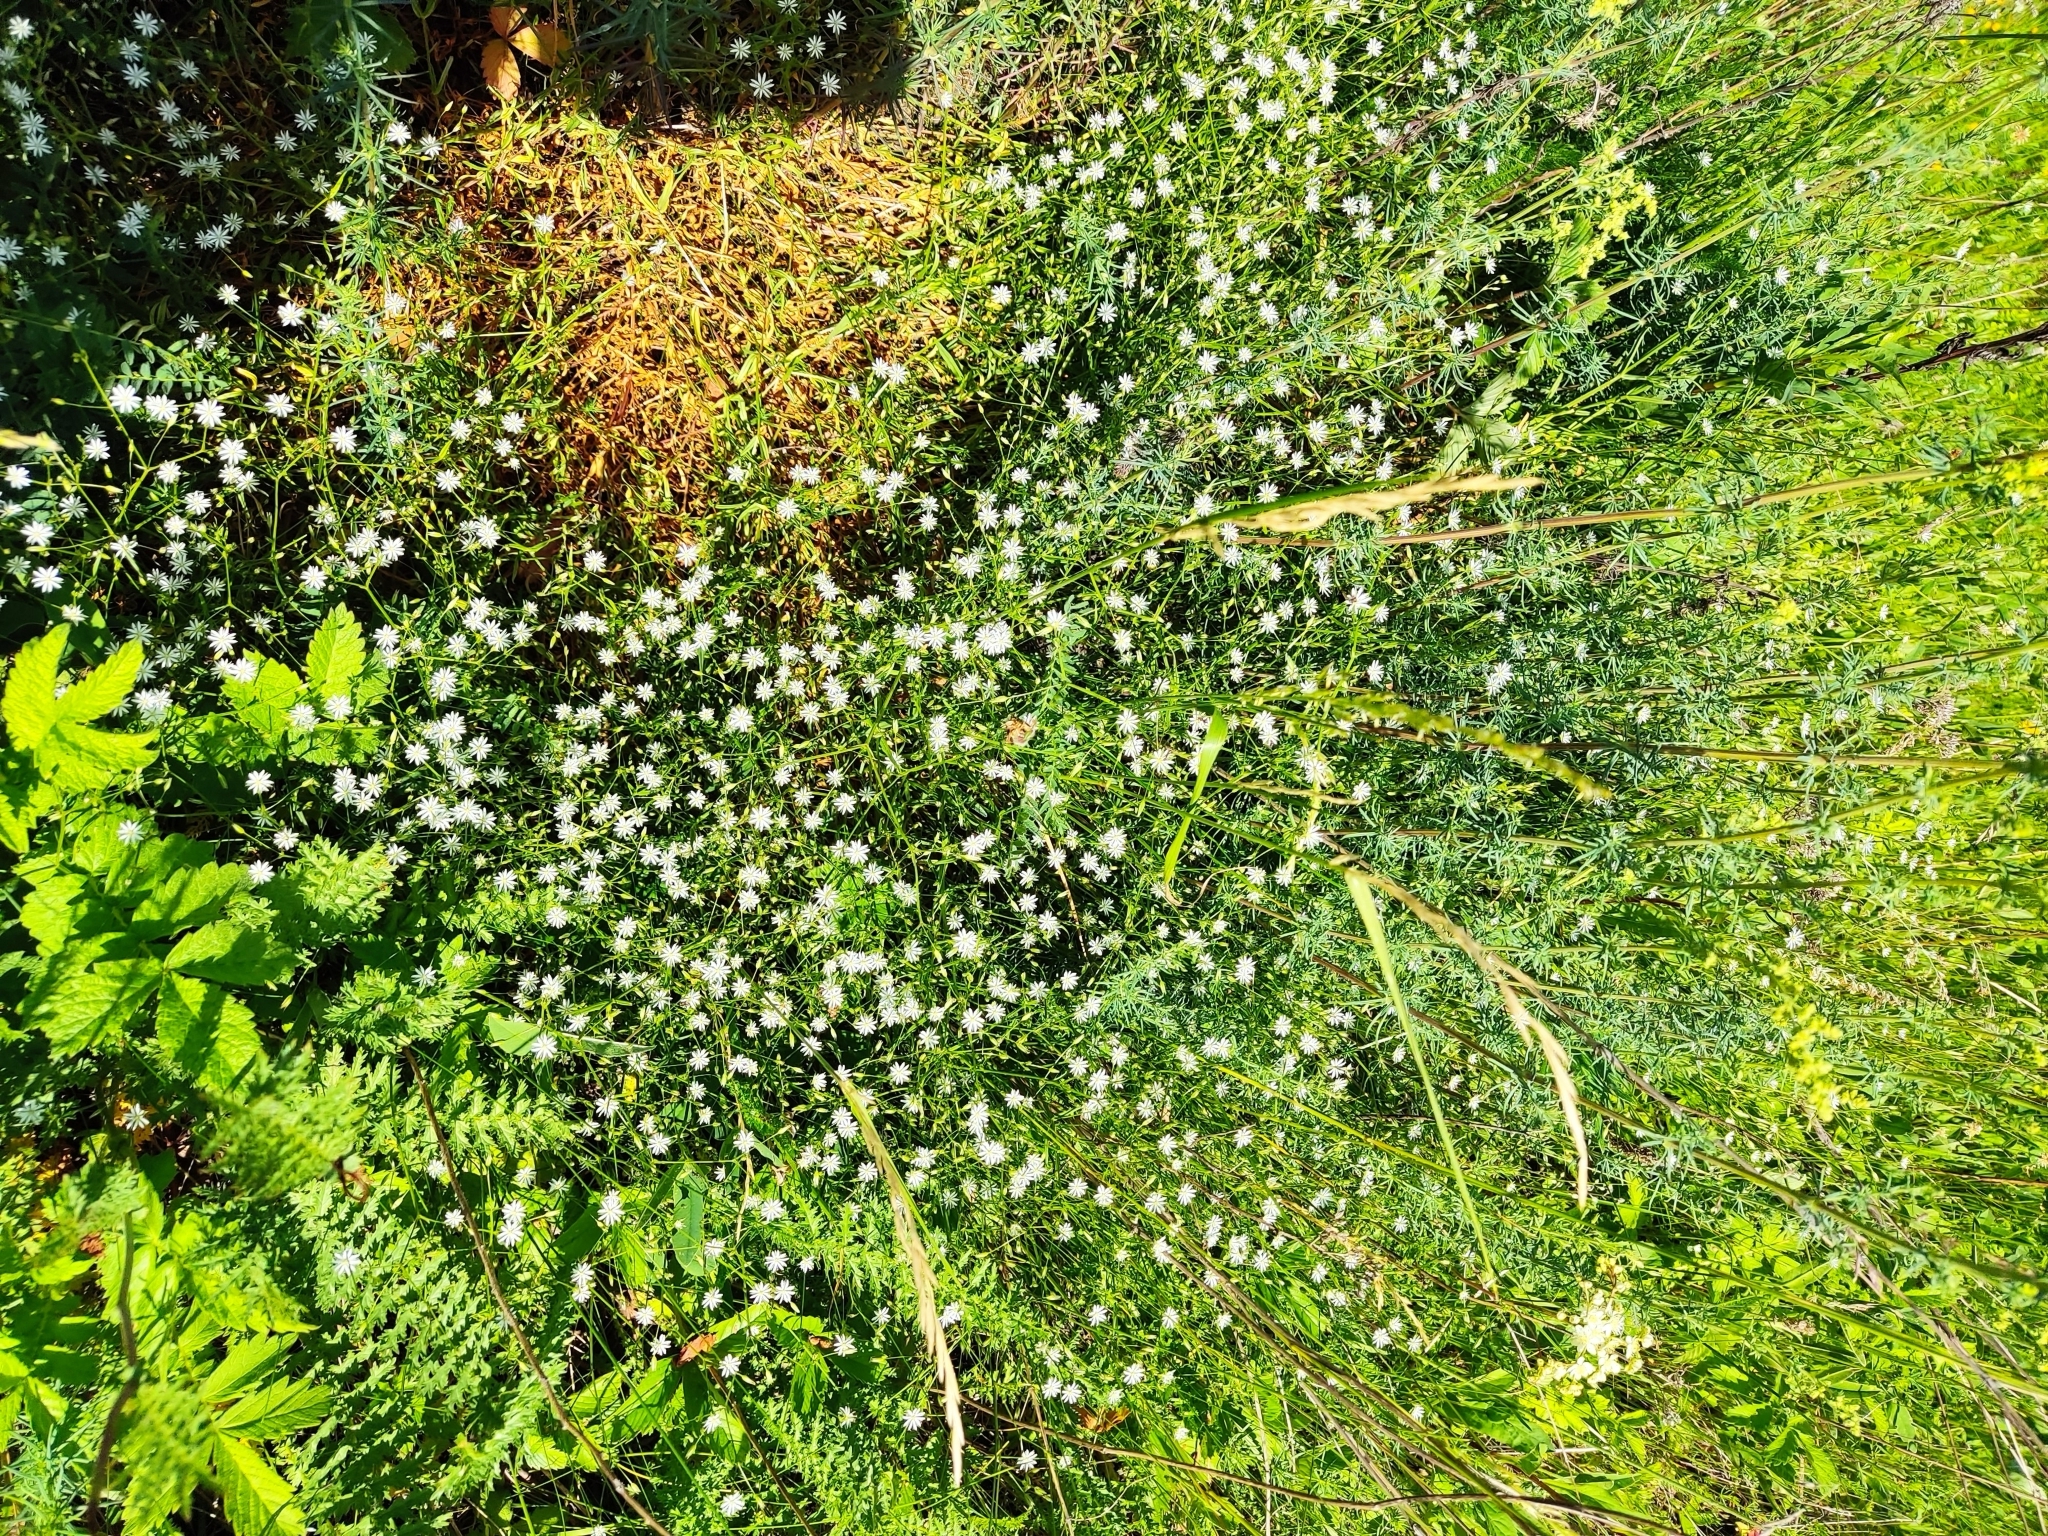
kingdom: Plantae
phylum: Tracheophyta
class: Magnoliopsida
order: Caryophyllales
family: Caryophyllaceae
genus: Stellaria
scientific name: Stellaria graminea
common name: Grass-like starwort
